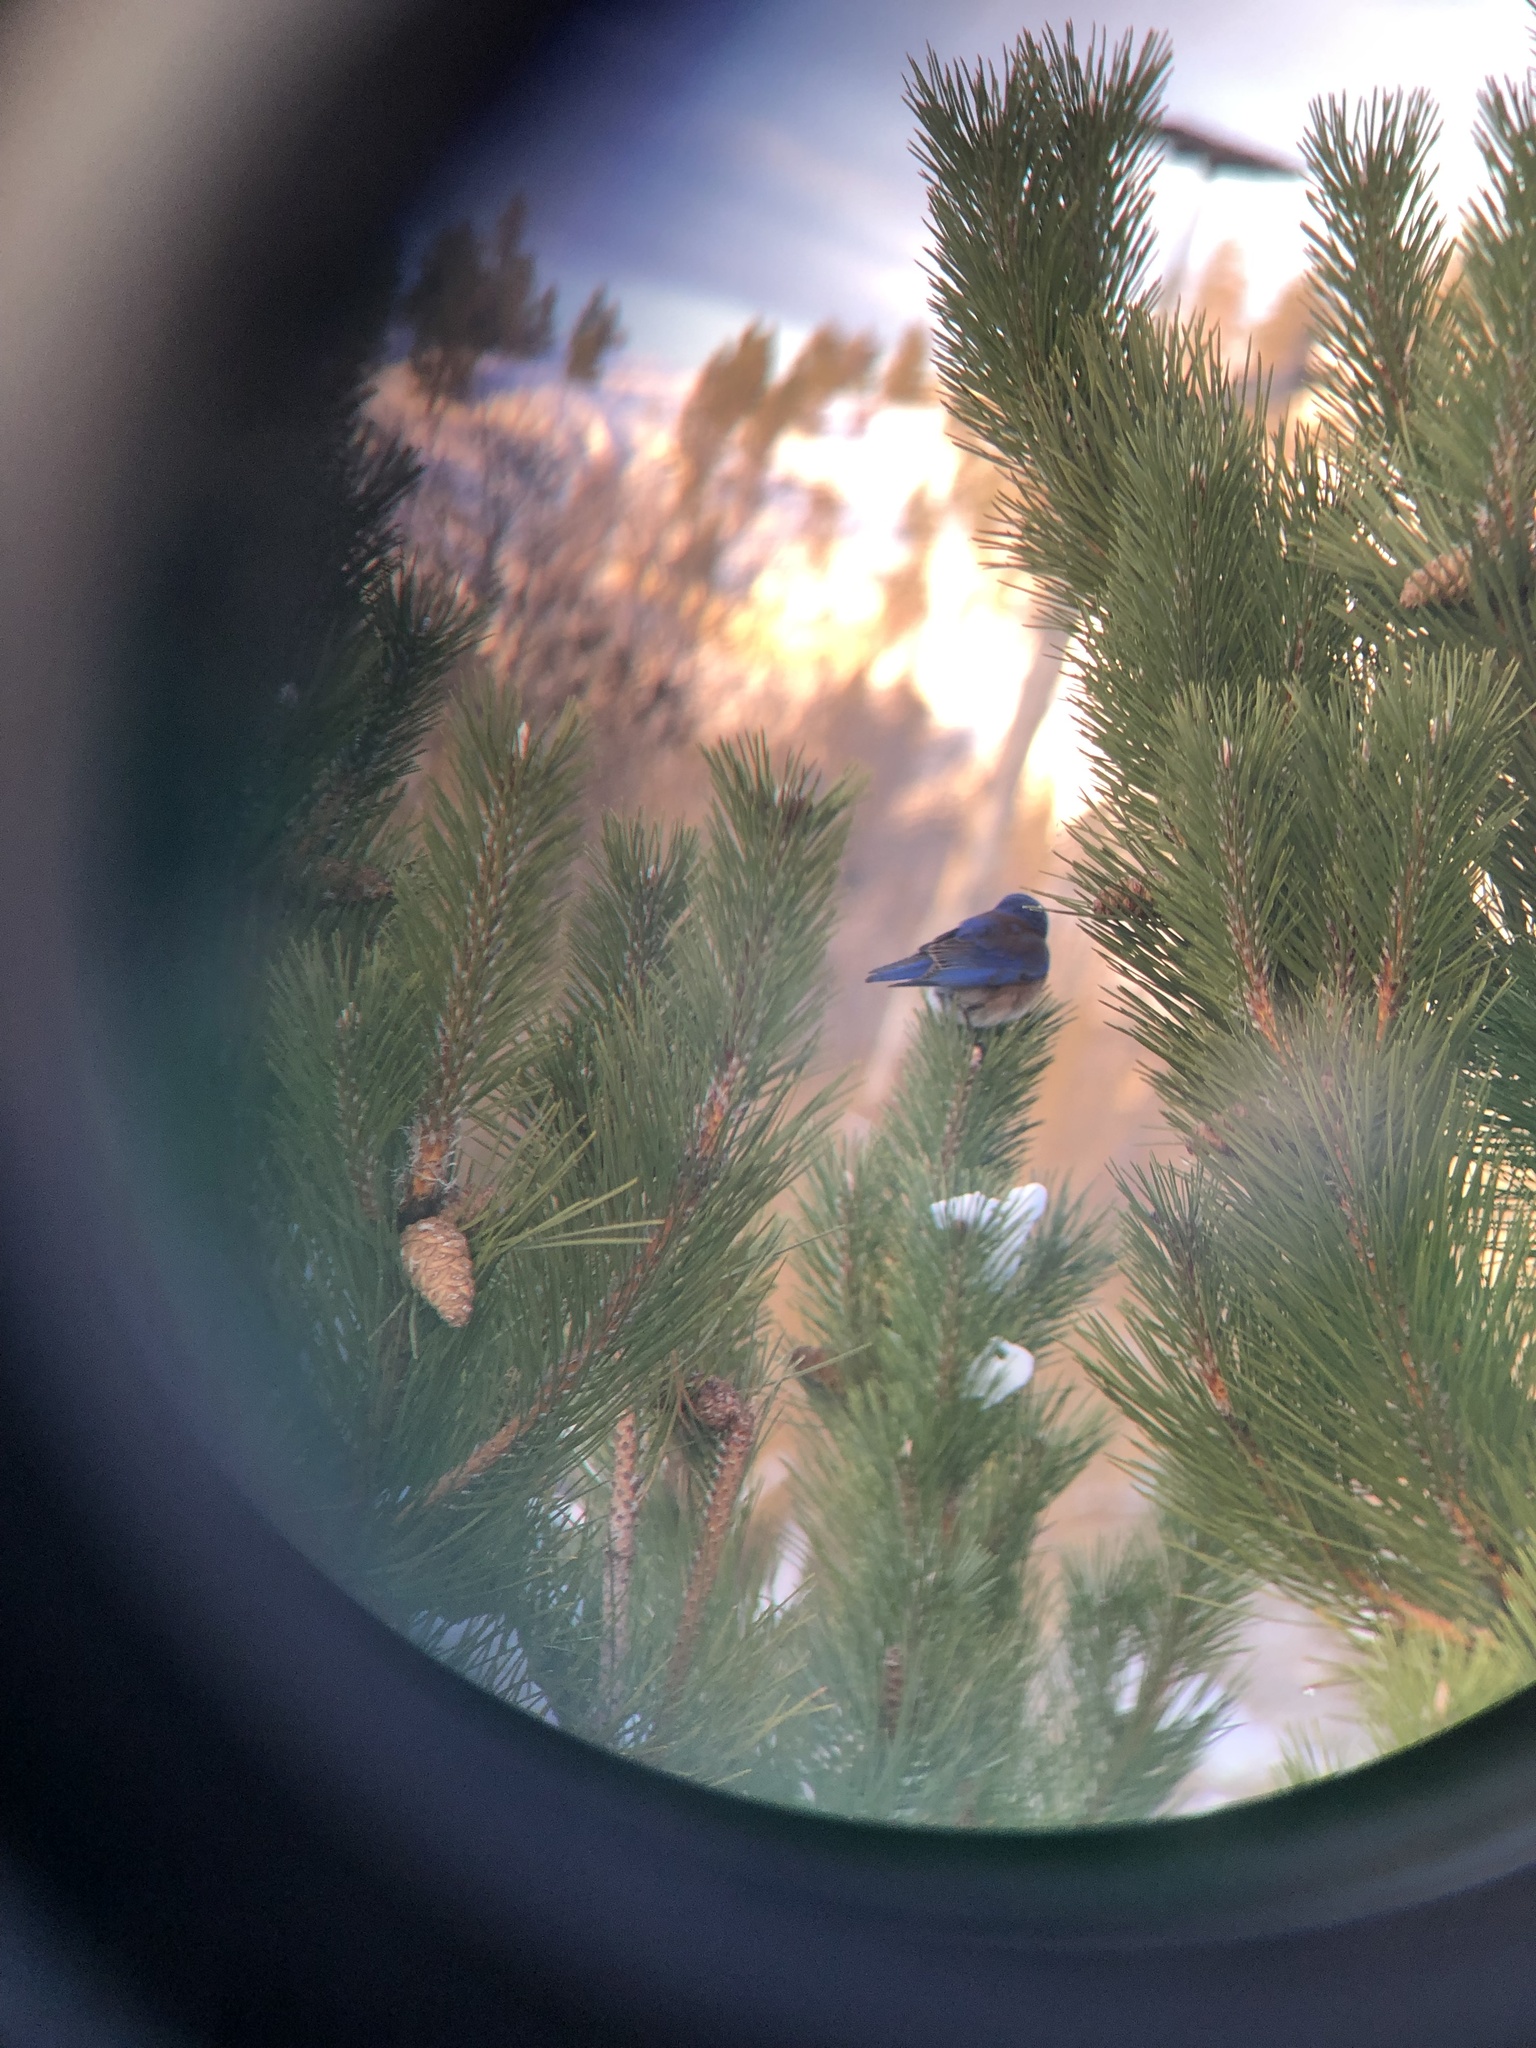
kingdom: Animalia
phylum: Chordata
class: Aves
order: Passeriformes
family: Turdidae
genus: Sialia
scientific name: Sialia mexicana
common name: Western bluebird
